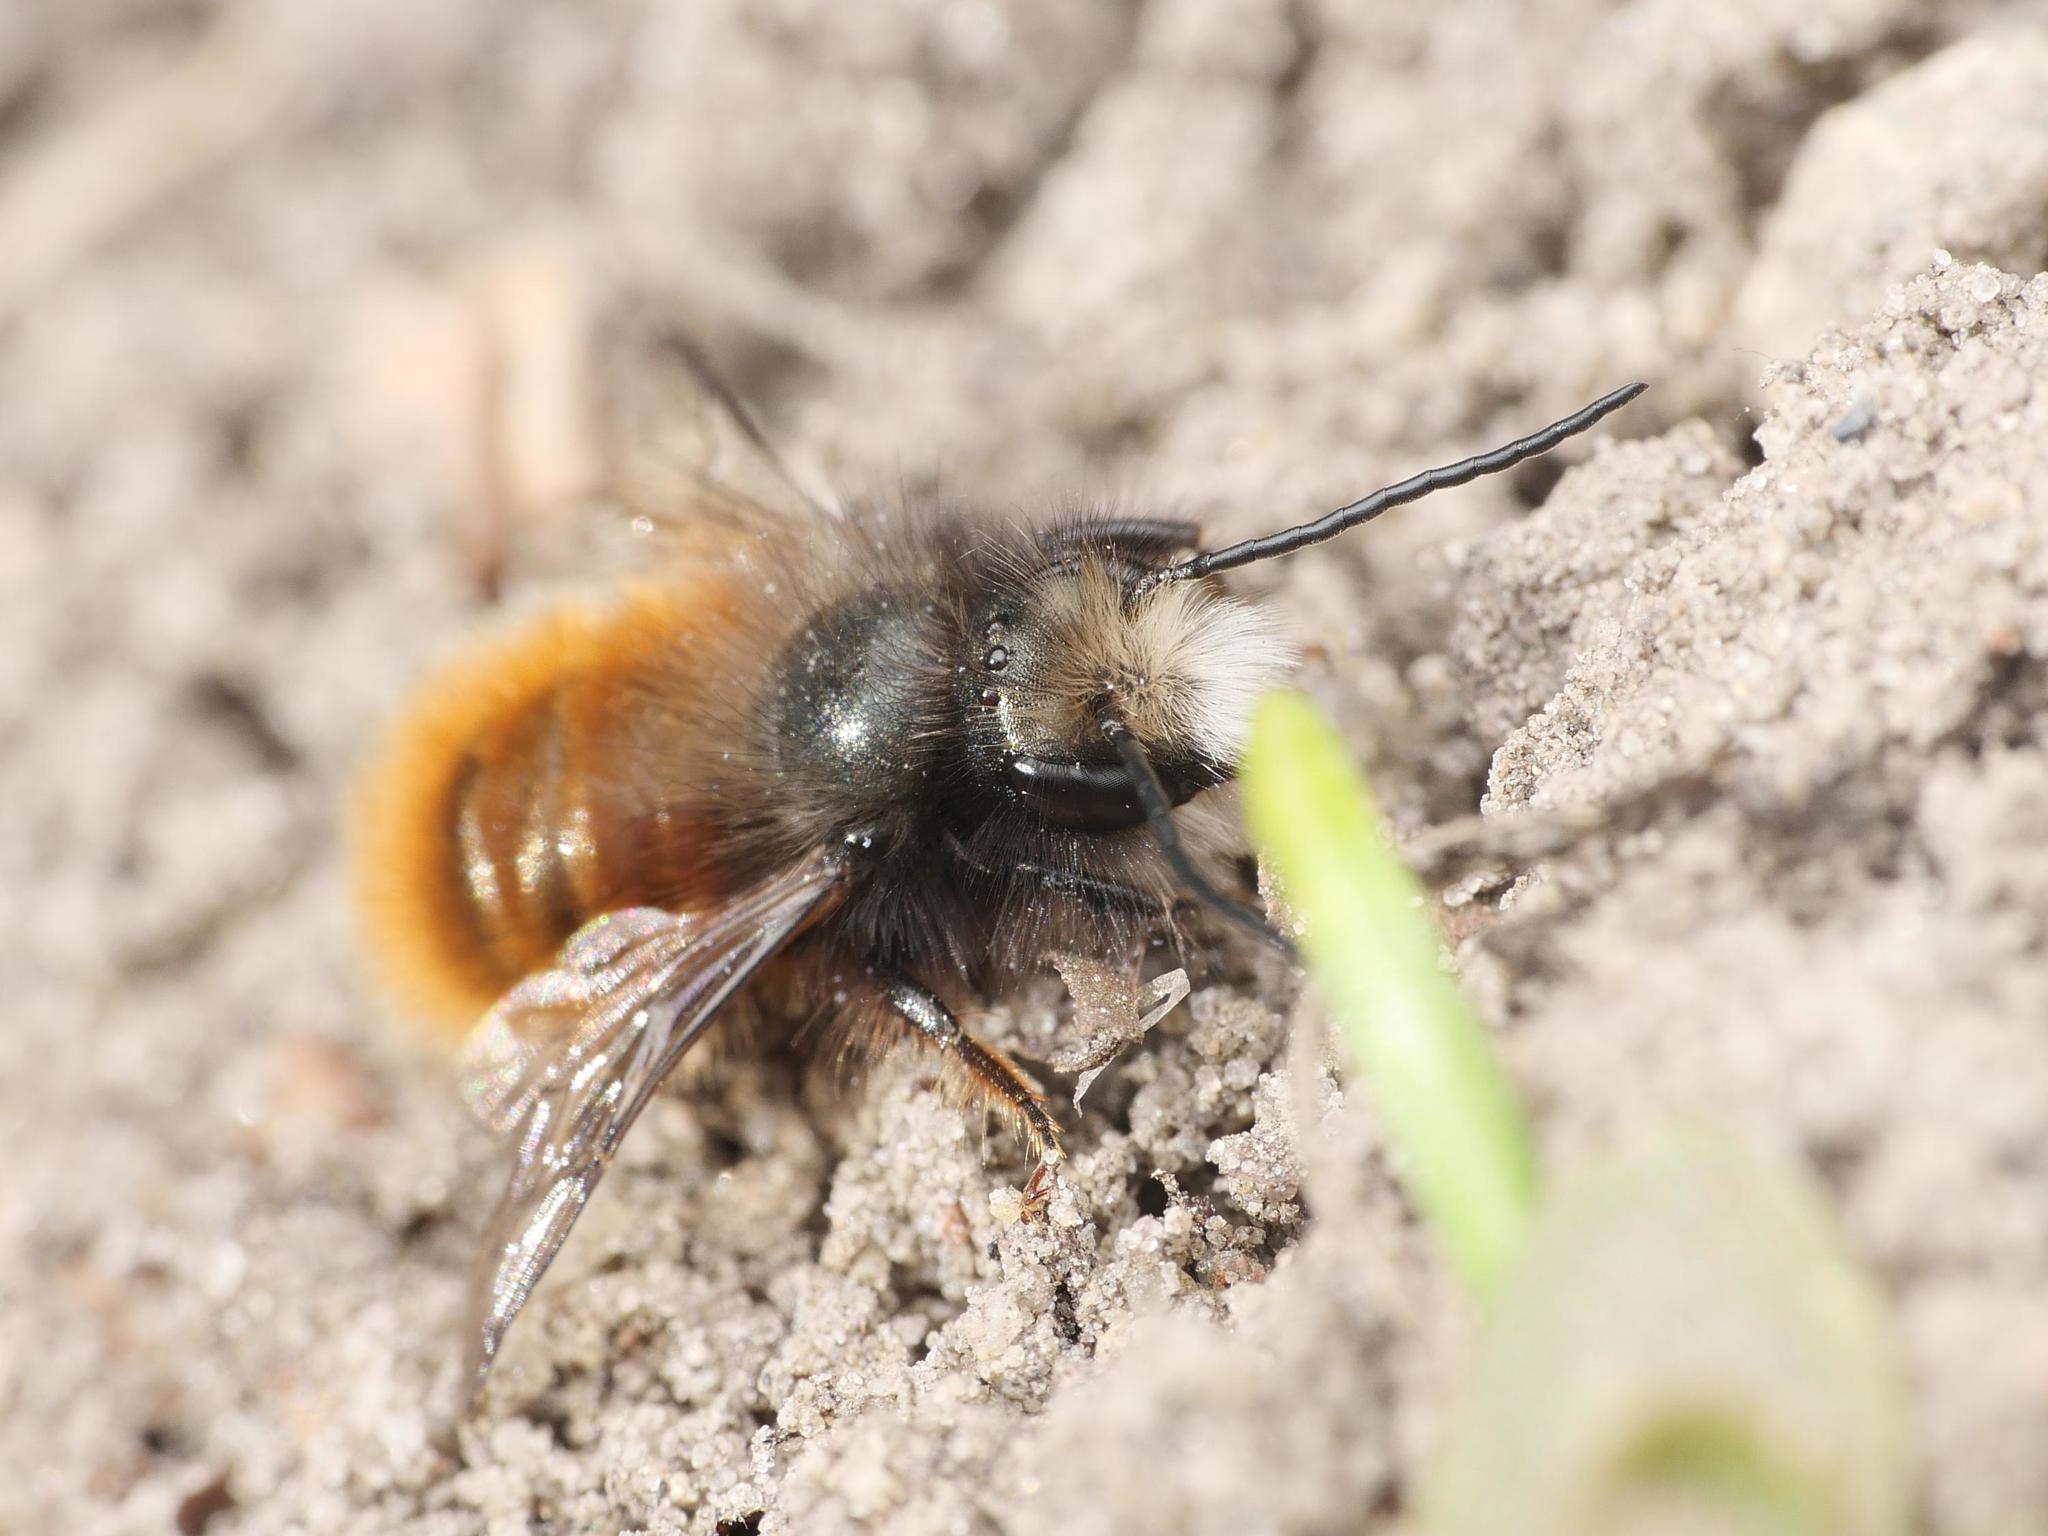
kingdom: Animalia
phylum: Arthropoda
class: Insecta
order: Hymenoptera
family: Megachilidae
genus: Osmia
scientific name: Osmia cornuta
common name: Mason bee
